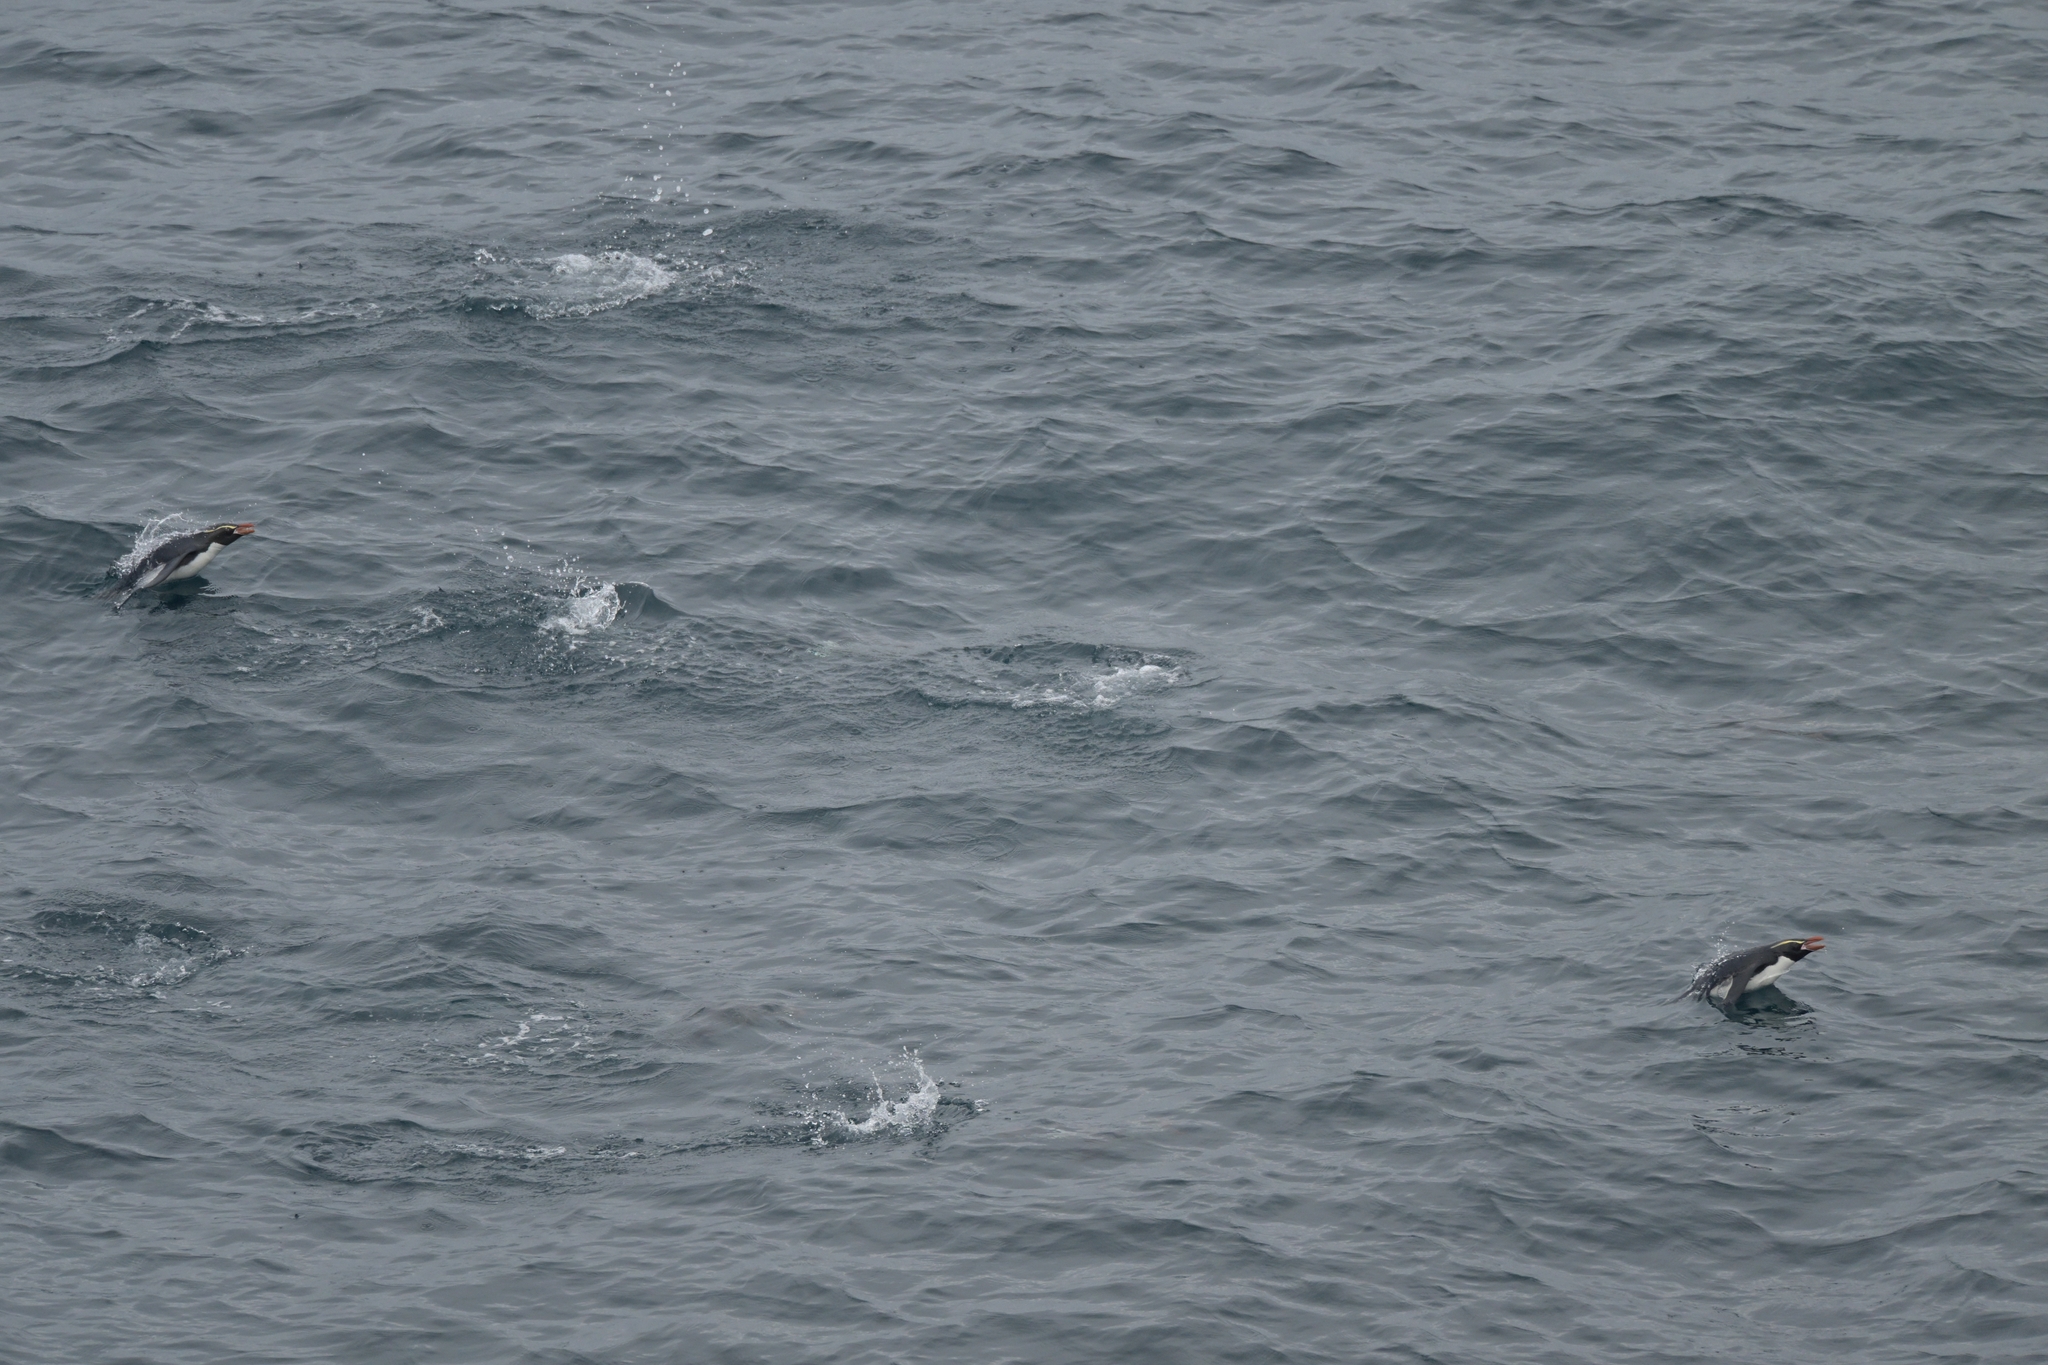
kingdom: Animalia
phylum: Chordata
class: Aves
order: Sphenisciformes
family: Spheniscidae
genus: Eudyptes
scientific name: Eudyptes robustus
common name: Snares penguin
